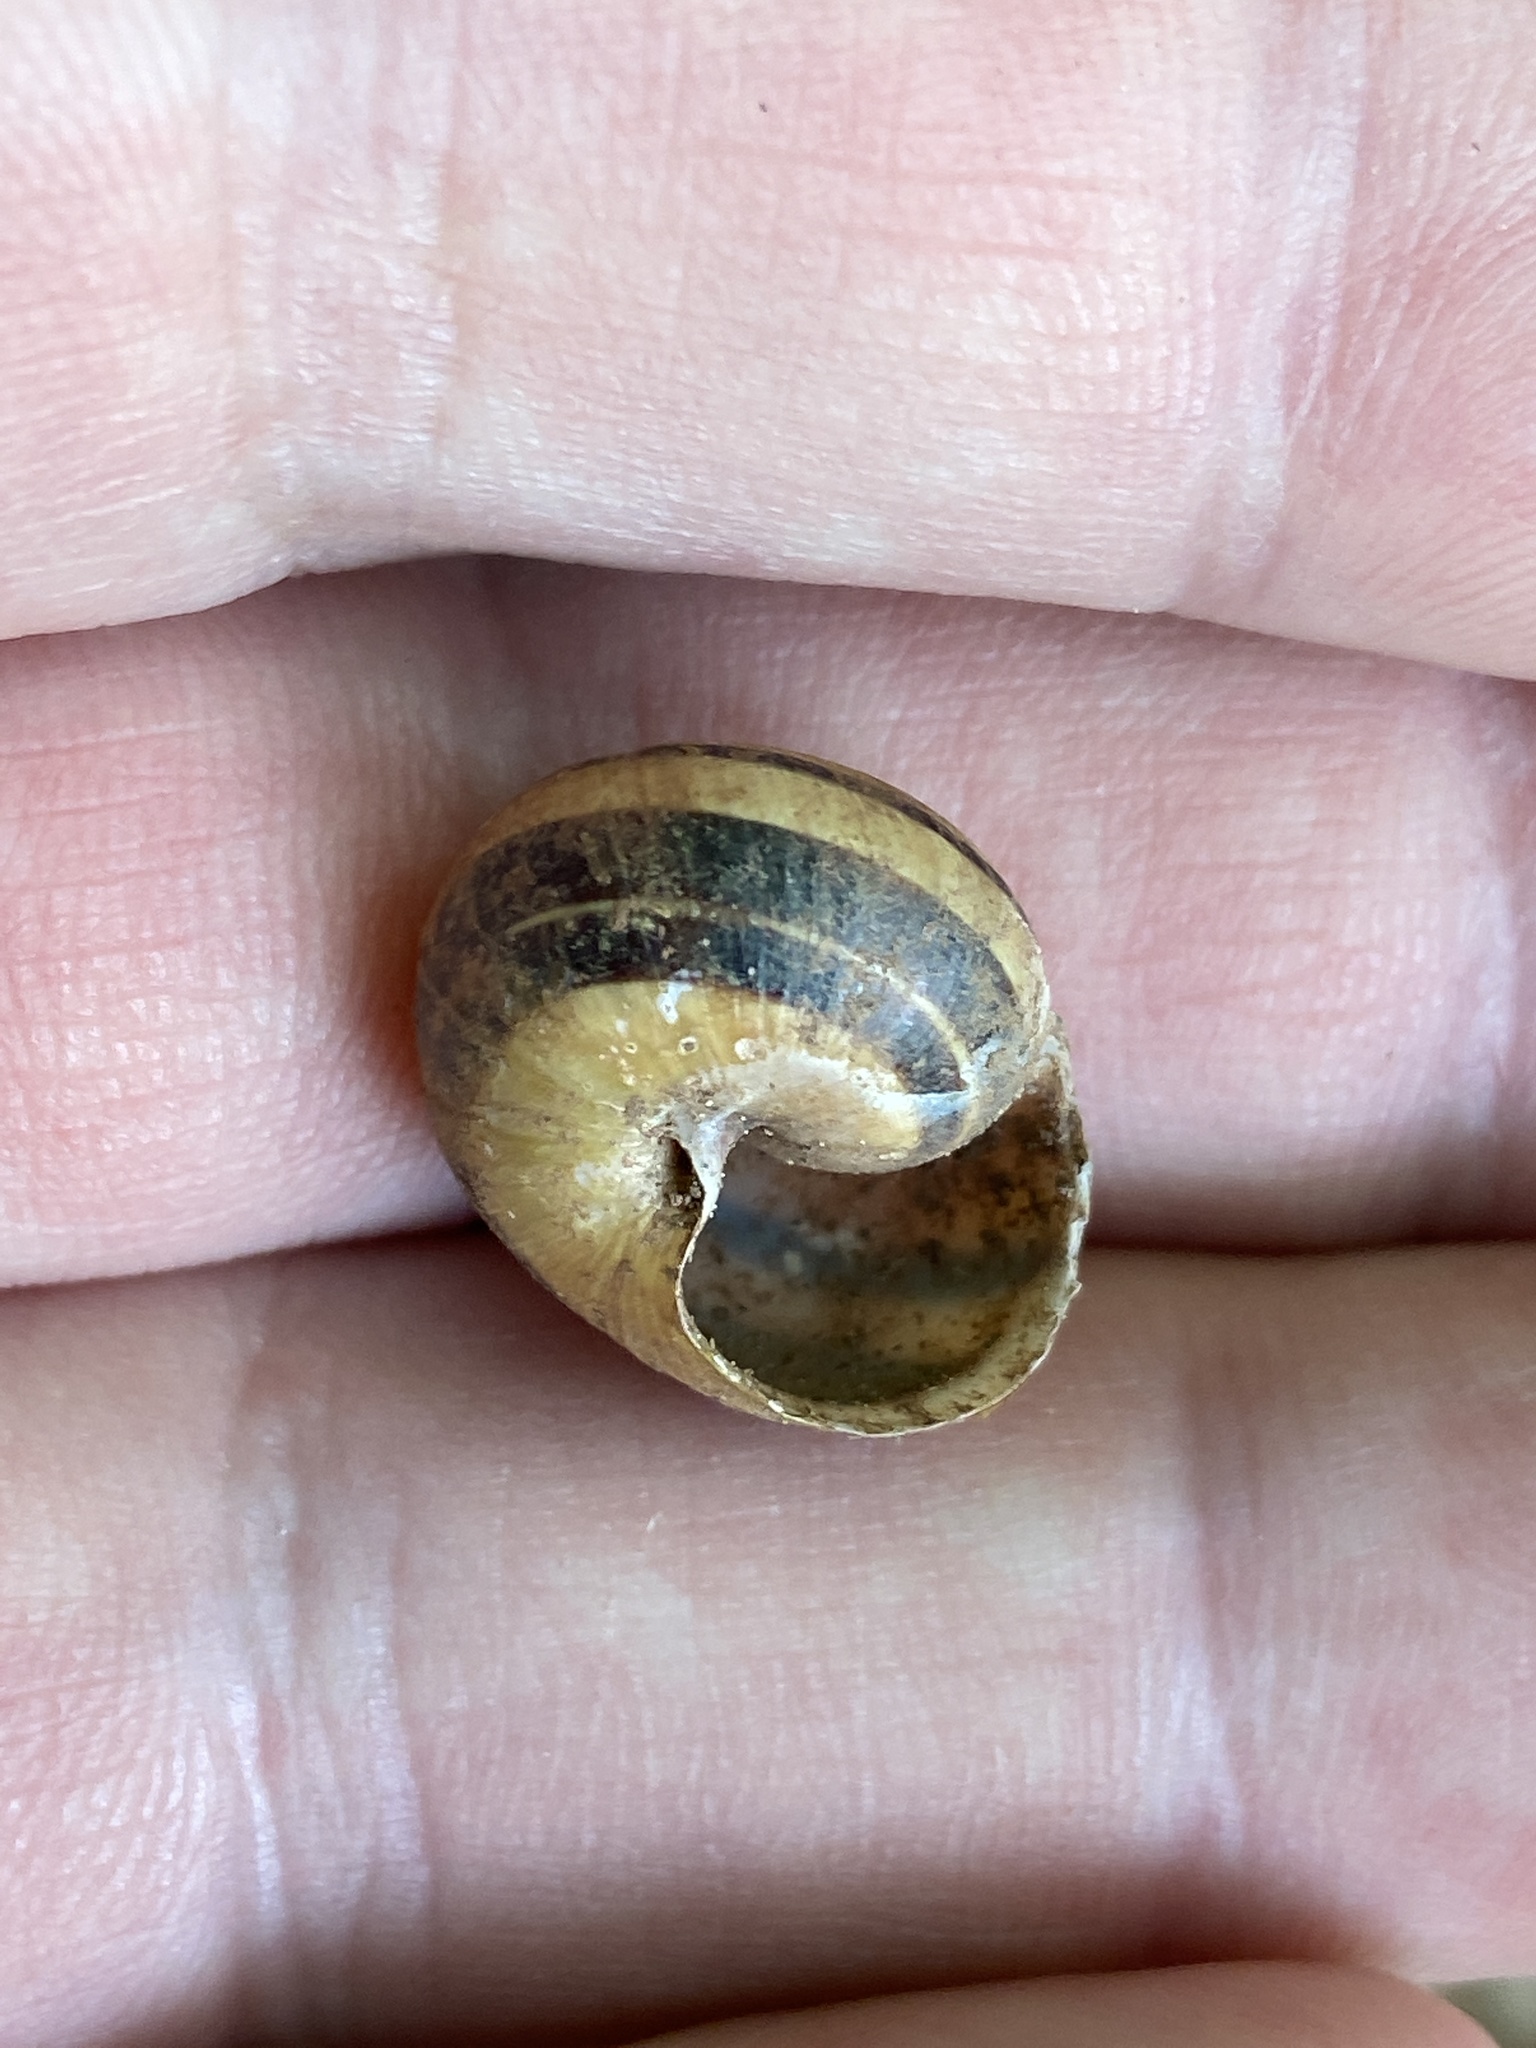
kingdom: Animalia
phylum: Mollusca
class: Gastropoda
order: Stylommatophora
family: Helicidae
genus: Cepaea
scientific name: Cepaea nemoralis
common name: Grovesnail
